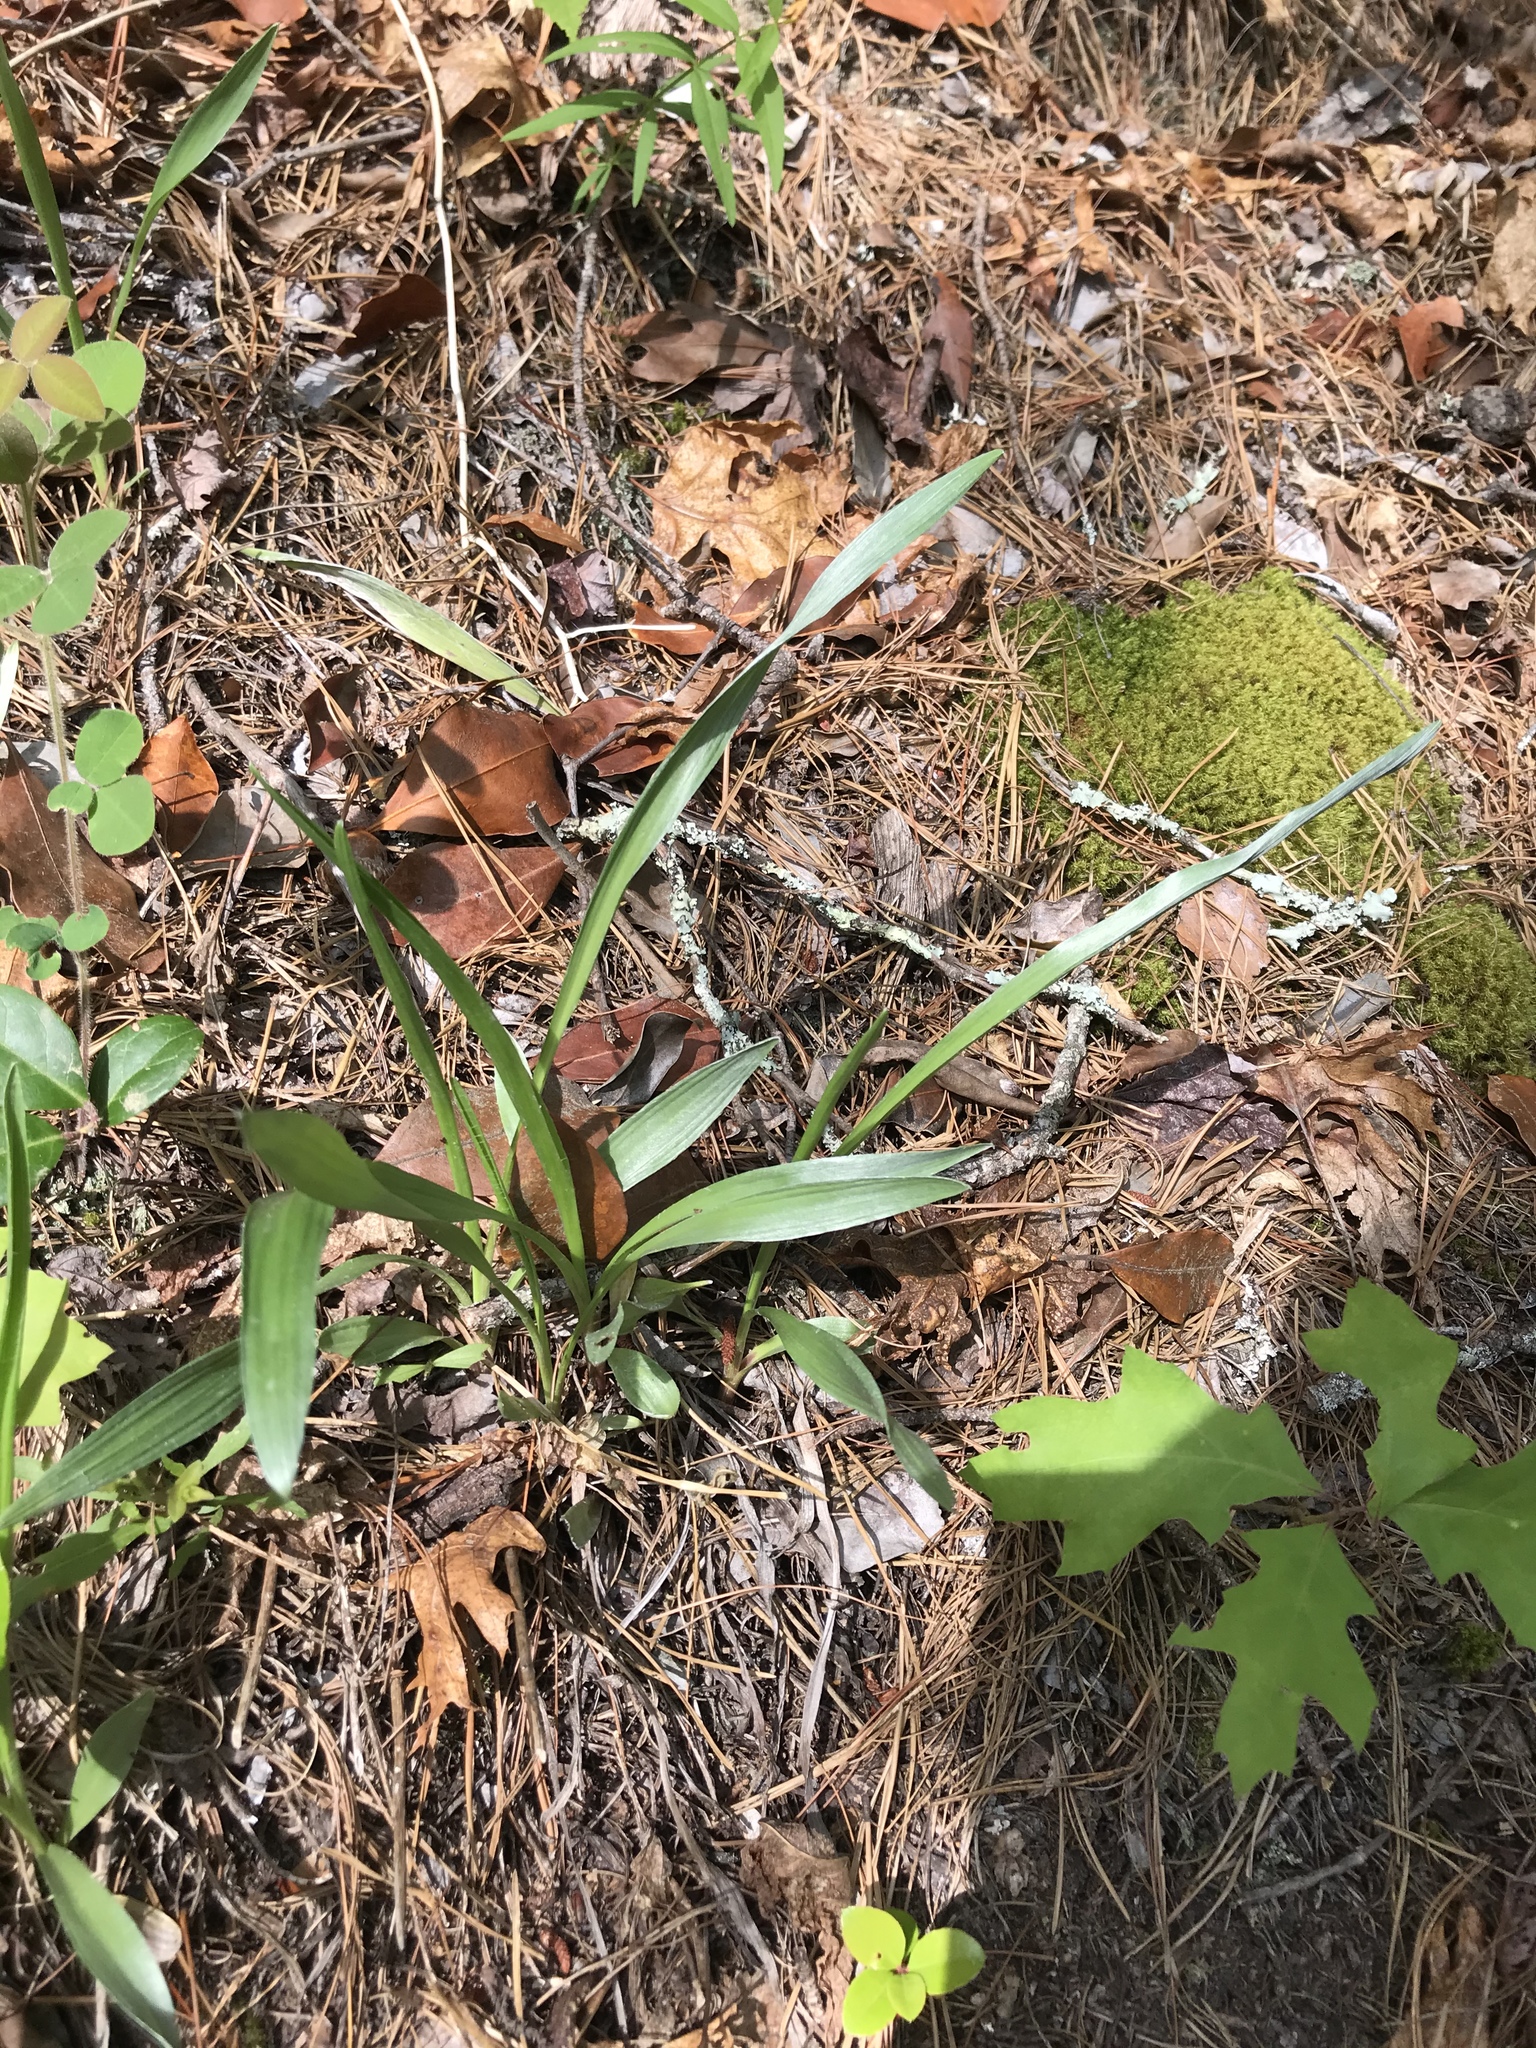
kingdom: Plantae
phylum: Tracheophyta
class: Magnoliopsida
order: Asterales
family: Asteraceae
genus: Pityopsis
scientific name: Pityopsis graminifolia
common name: Grass-leaf golden-aster
